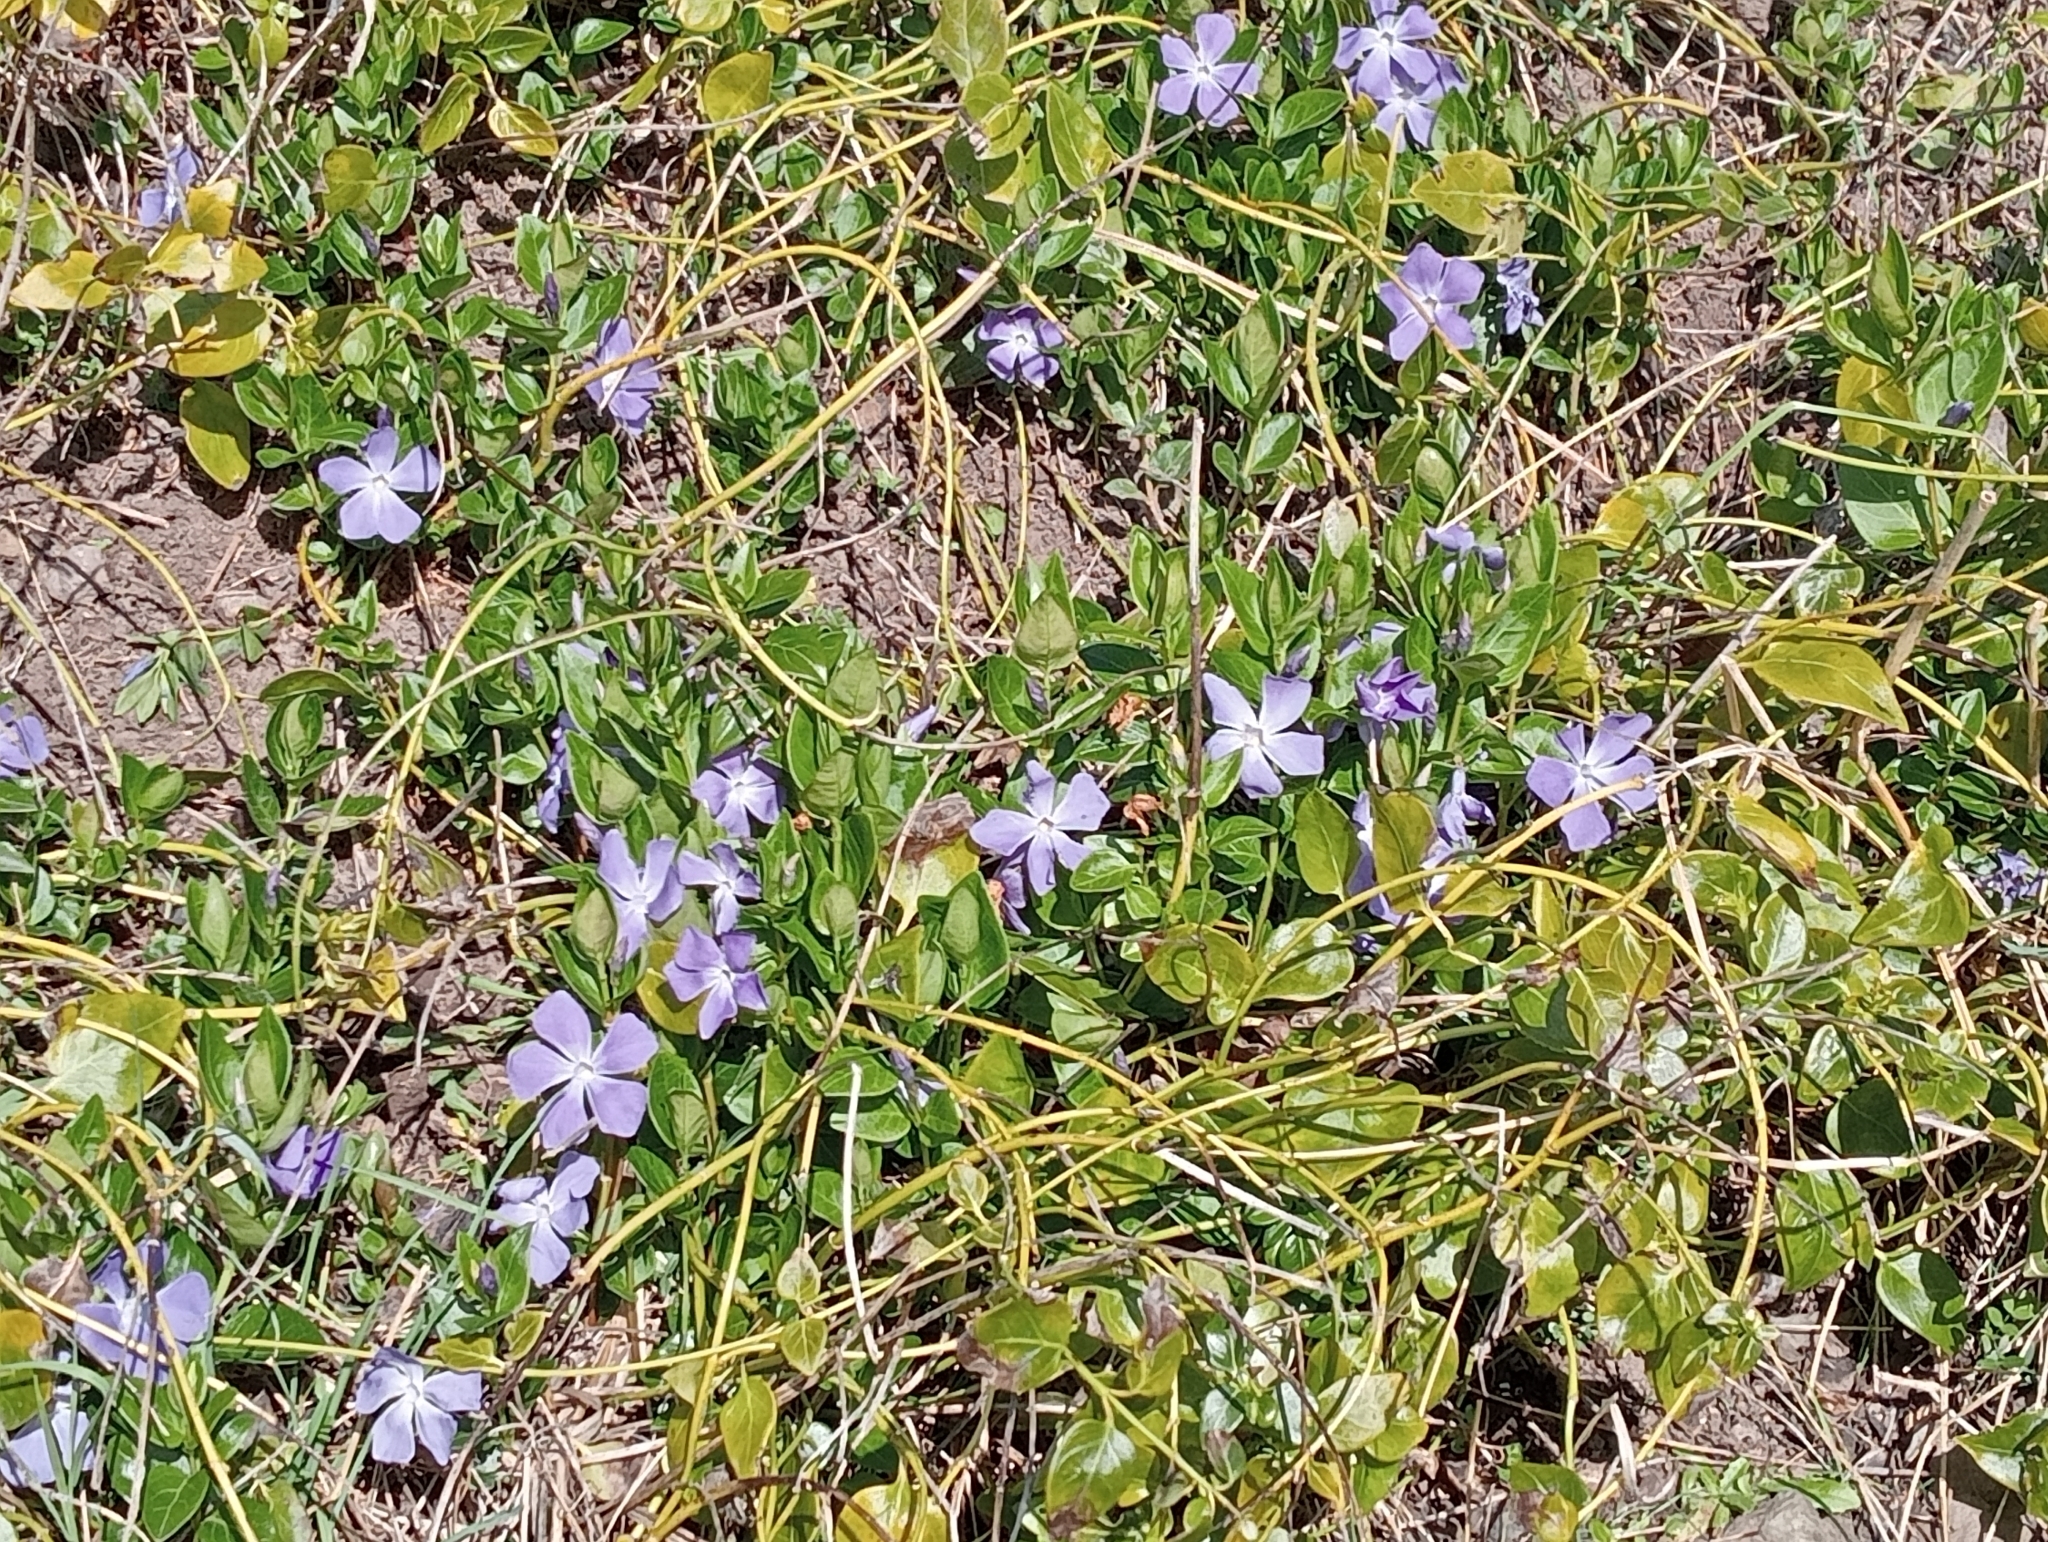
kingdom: Plantae
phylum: Tracheophyta
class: Magnoliopsida
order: Gentianales
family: Apocynaceae
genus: Vinca
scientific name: Vinca major
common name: Greater periwinkle
